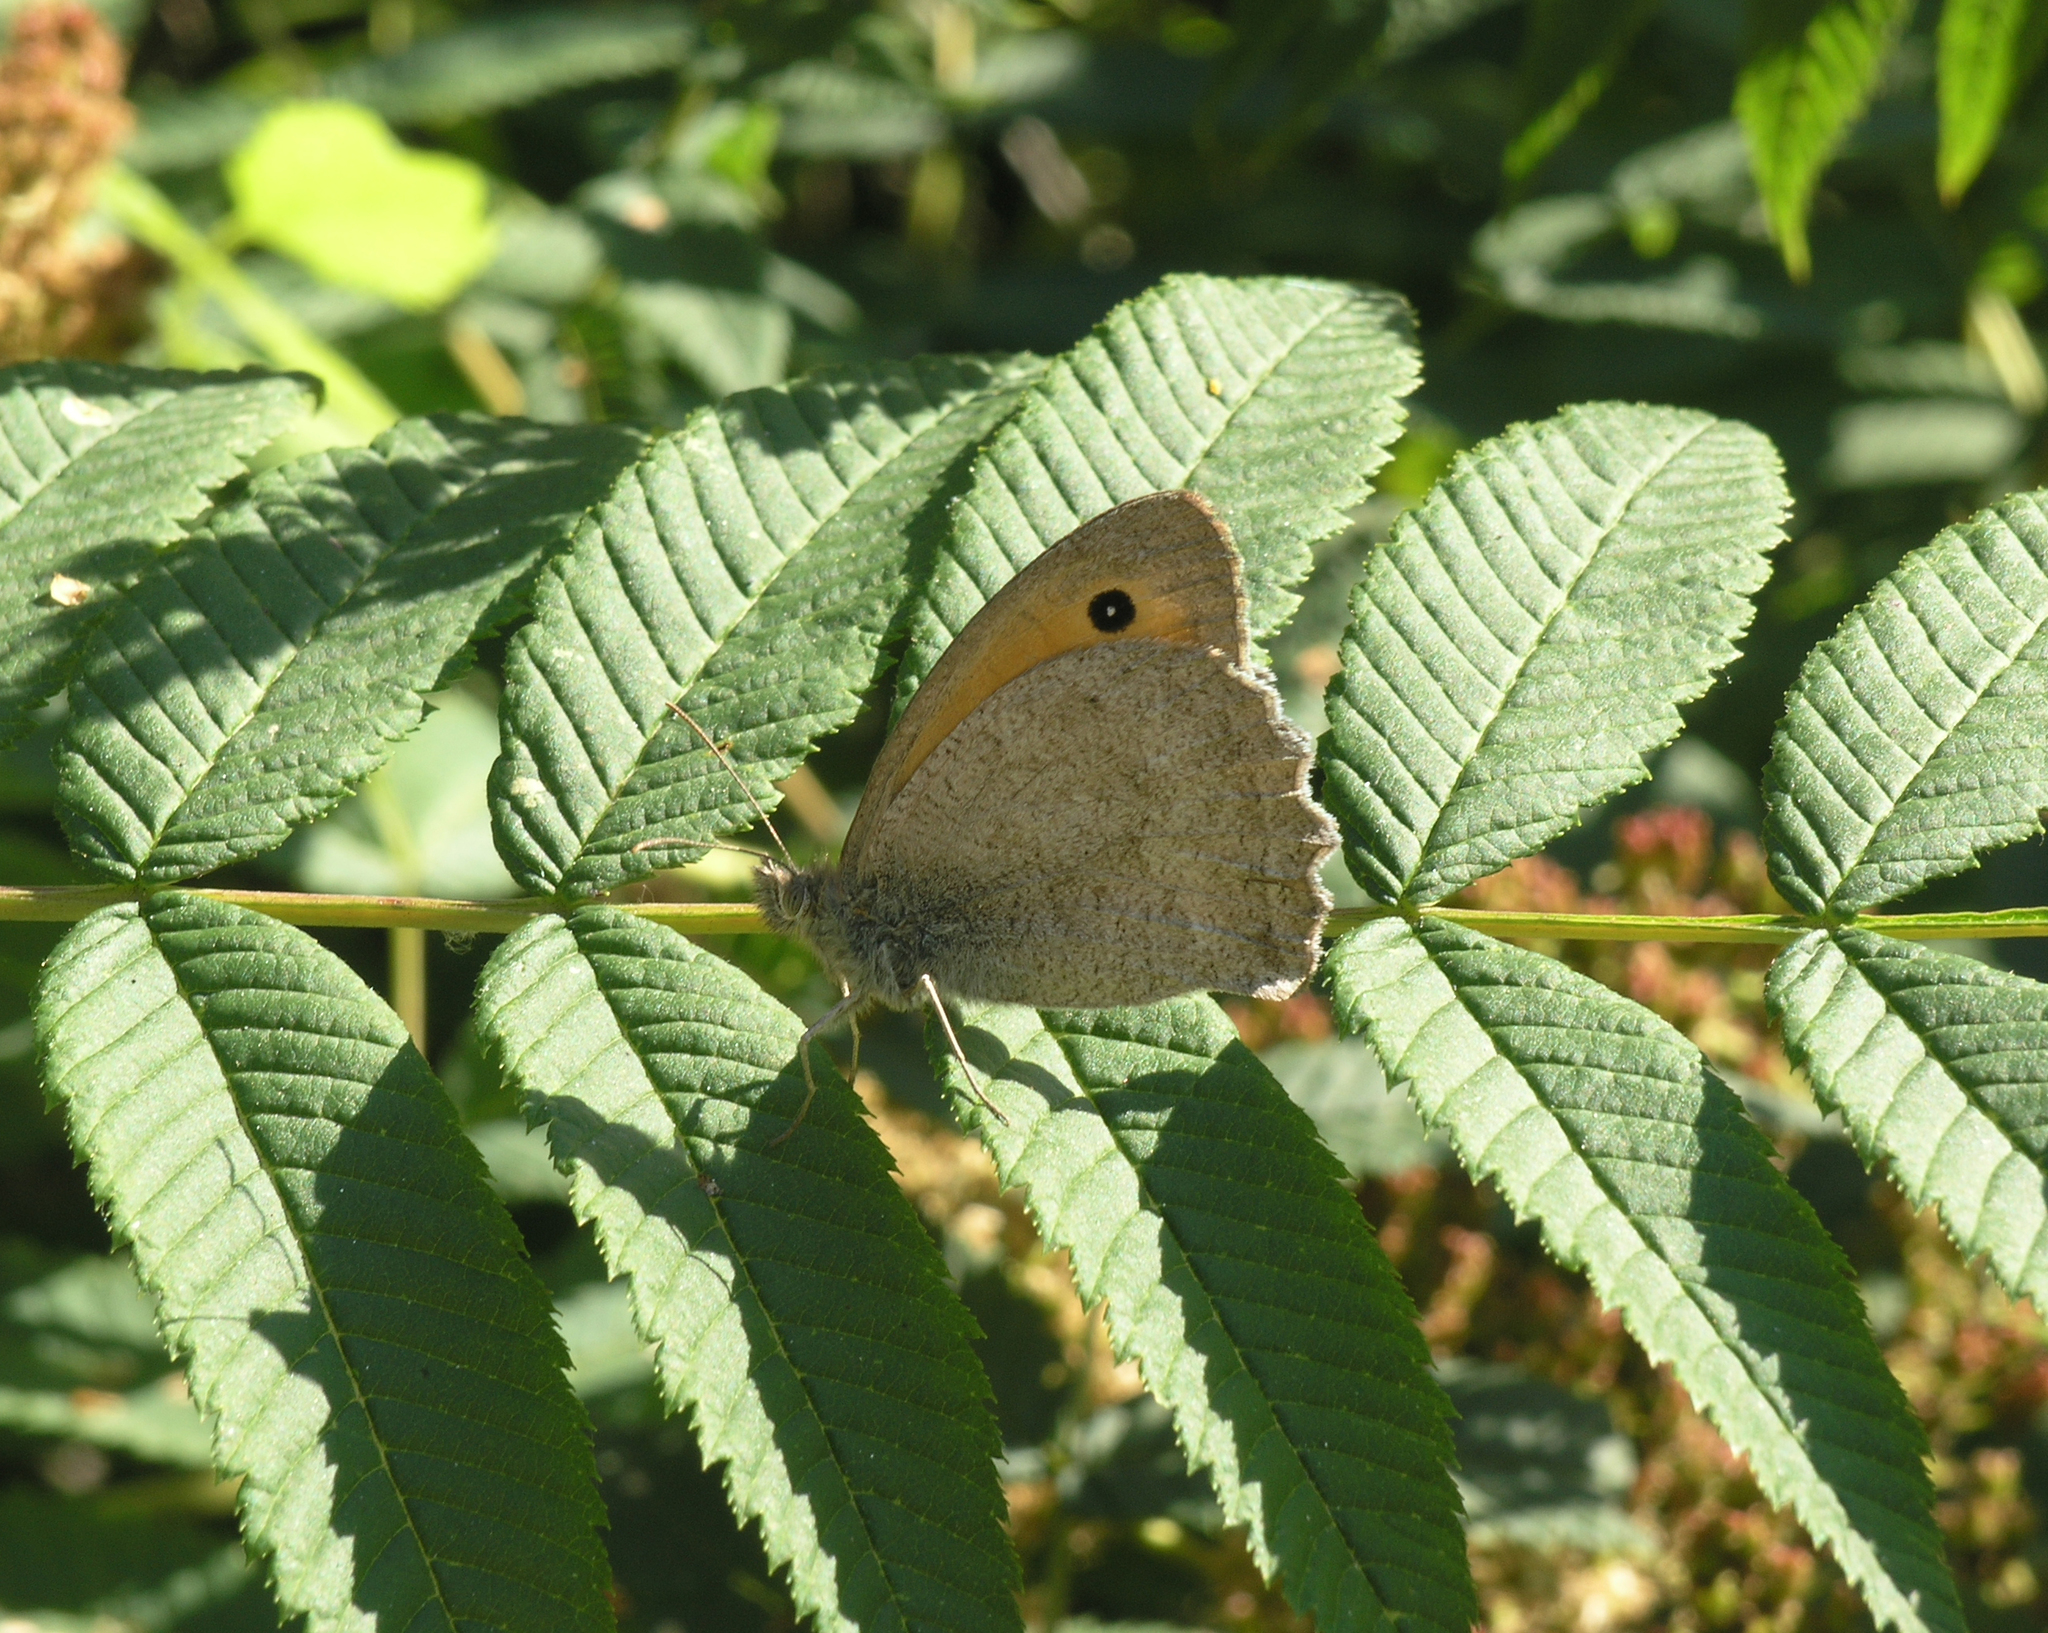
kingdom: Animalia
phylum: Arthropoda
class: Insecta
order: Lepidoptera
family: Nymphalidae
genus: Hyponephele
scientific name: Hyponephele lupinus
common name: Oriental meadow brown
